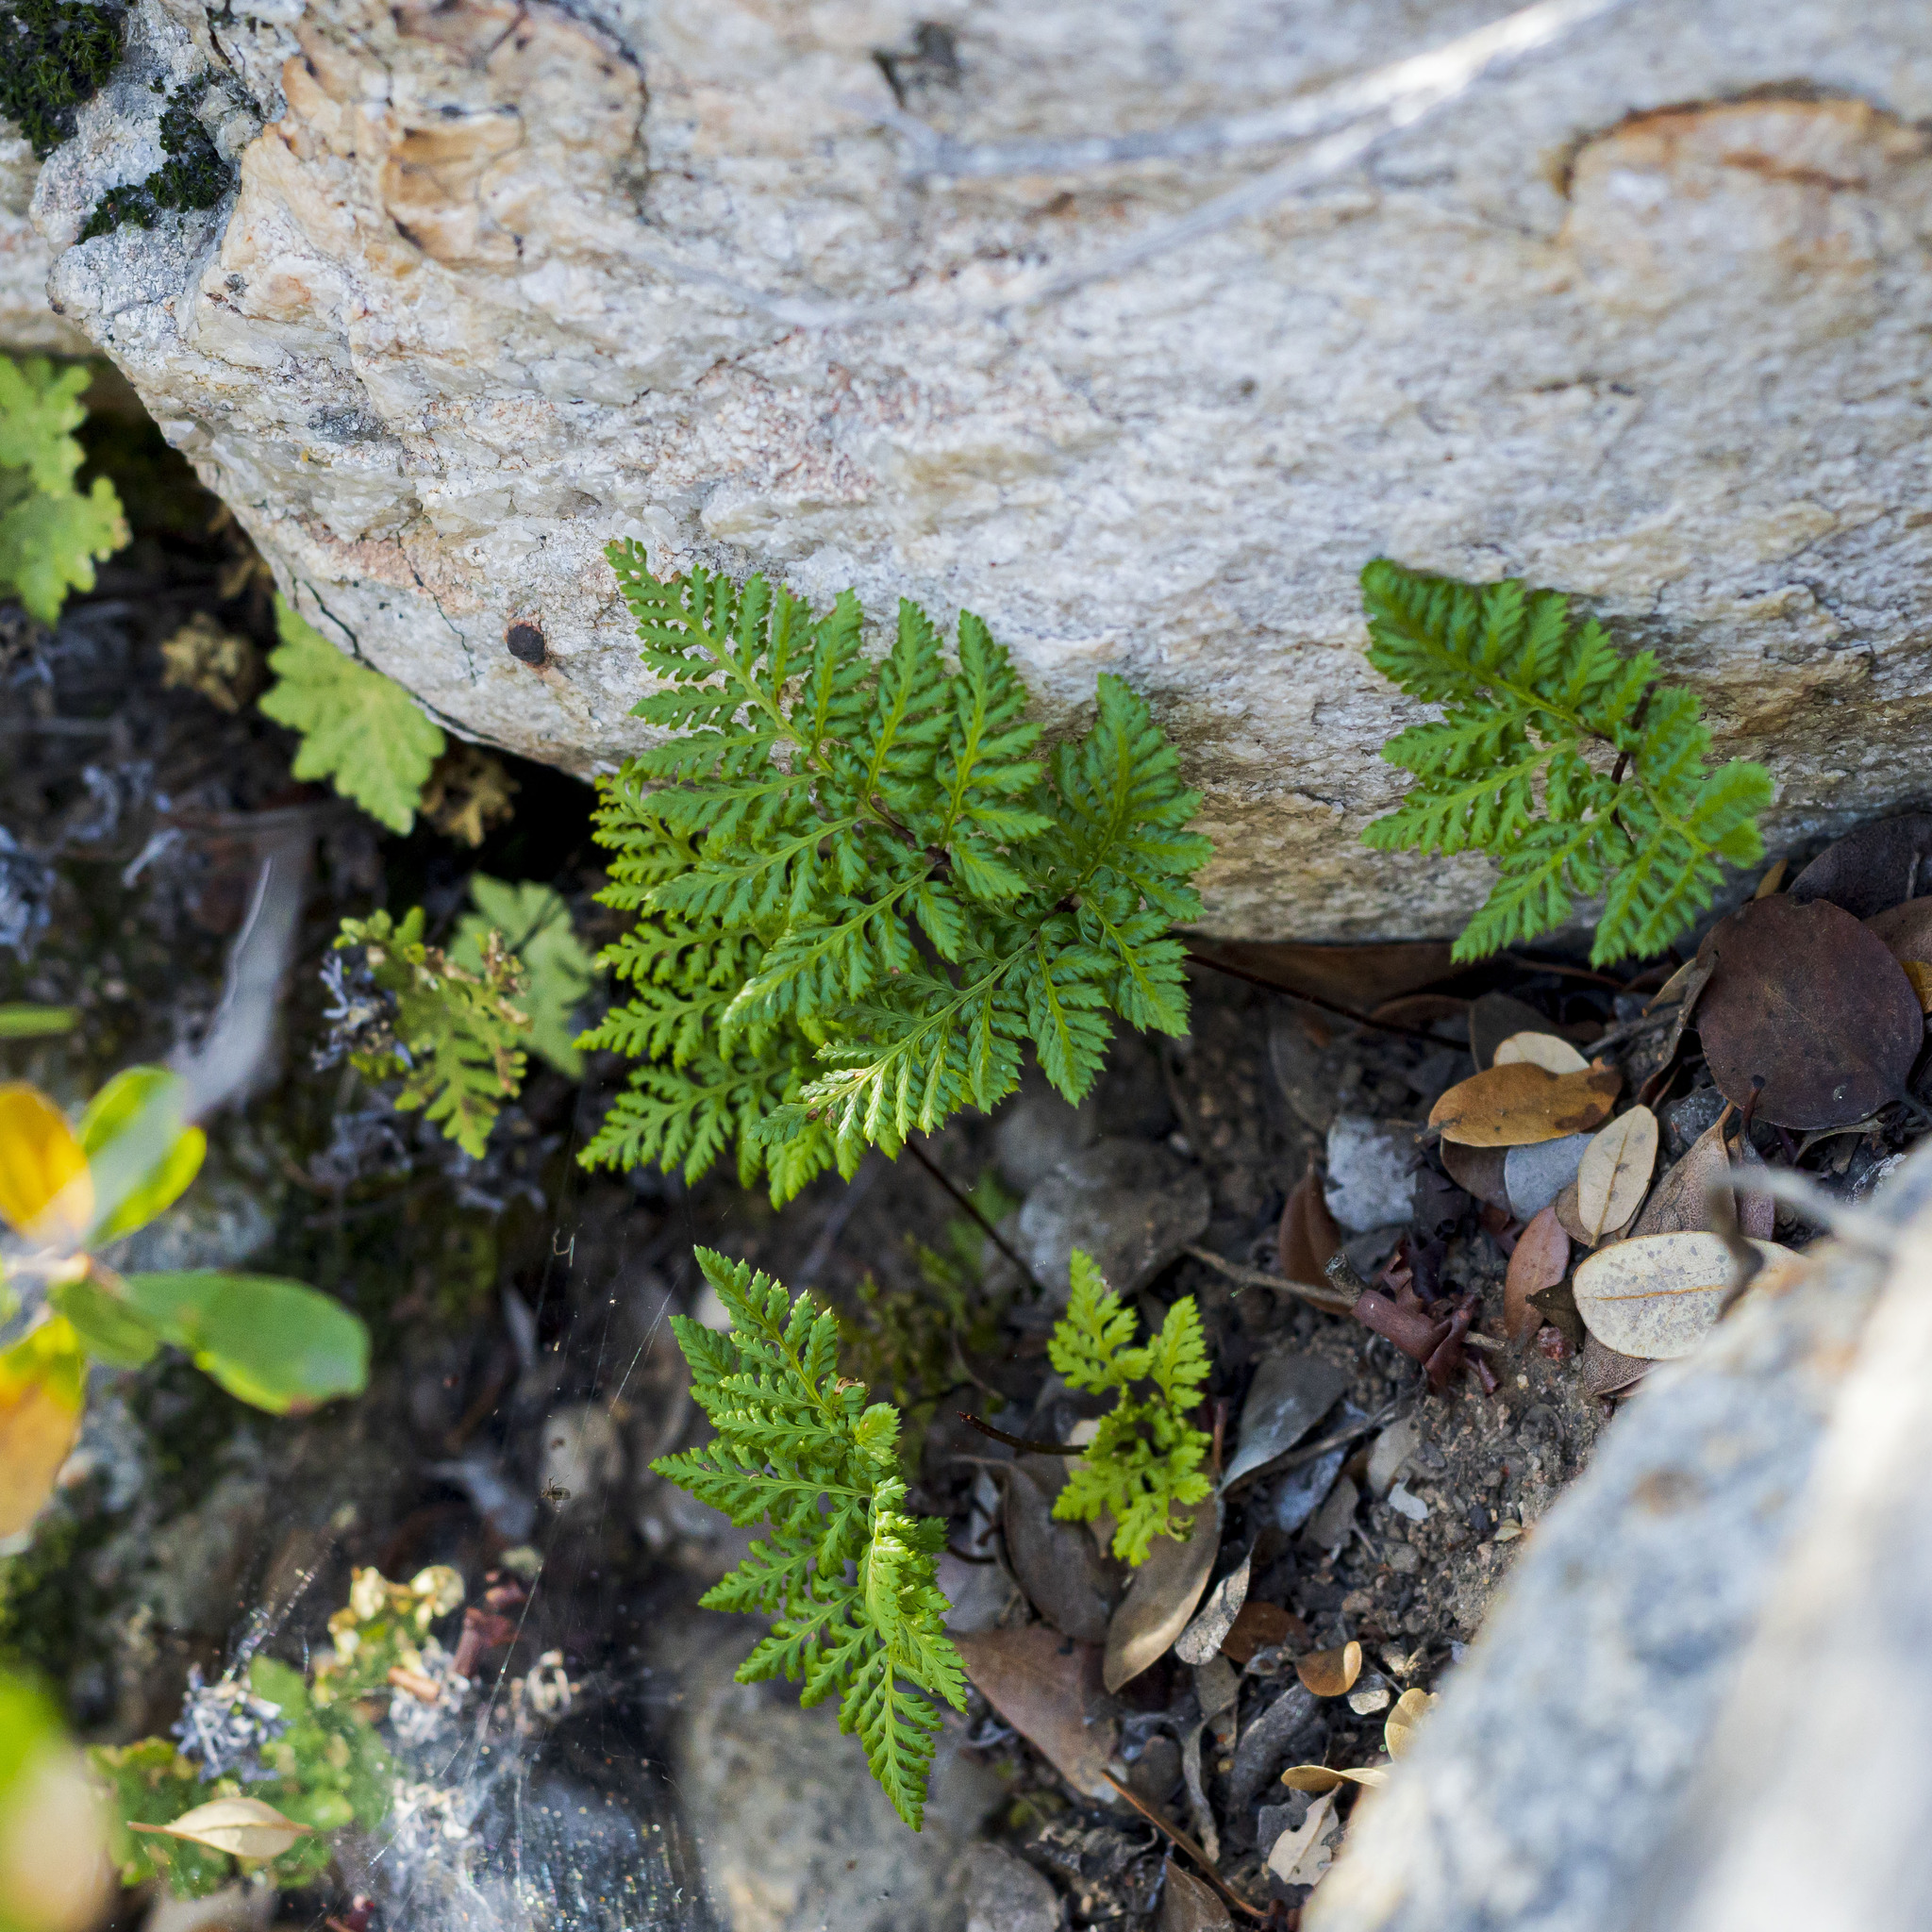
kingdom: Plantae
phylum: Tracheophyta
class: Polypodiopsida
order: Polypodiales
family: Pteridaceae
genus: Aspidotis
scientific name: Aspidotis californica
